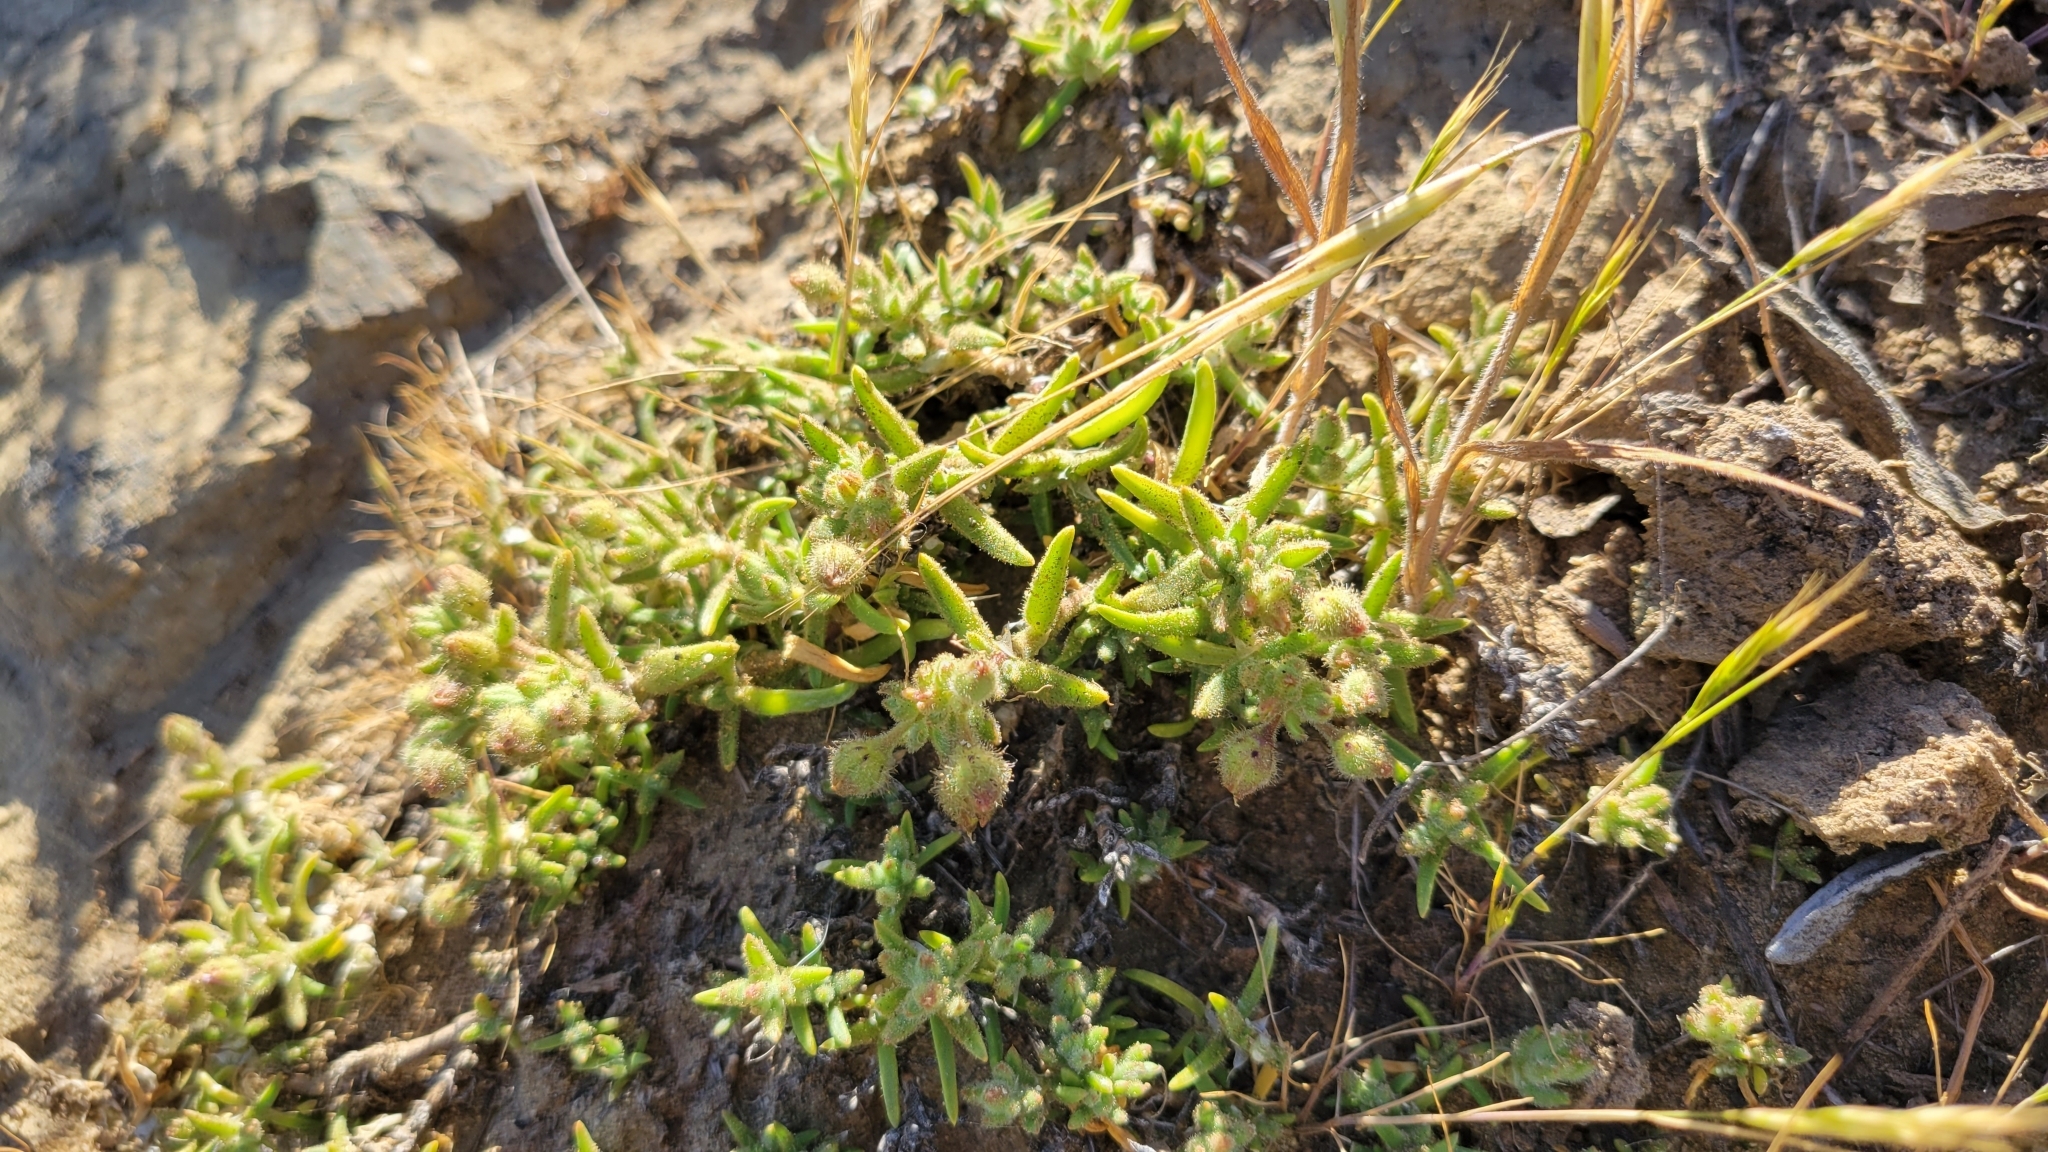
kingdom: Plantae
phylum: Tracheophyta
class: Magnoliopsida
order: Caryophyllales
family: Caryophyllaceae
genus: Spergularia
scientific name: Spergularia macrotheca
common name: Beach sand-spurrey
